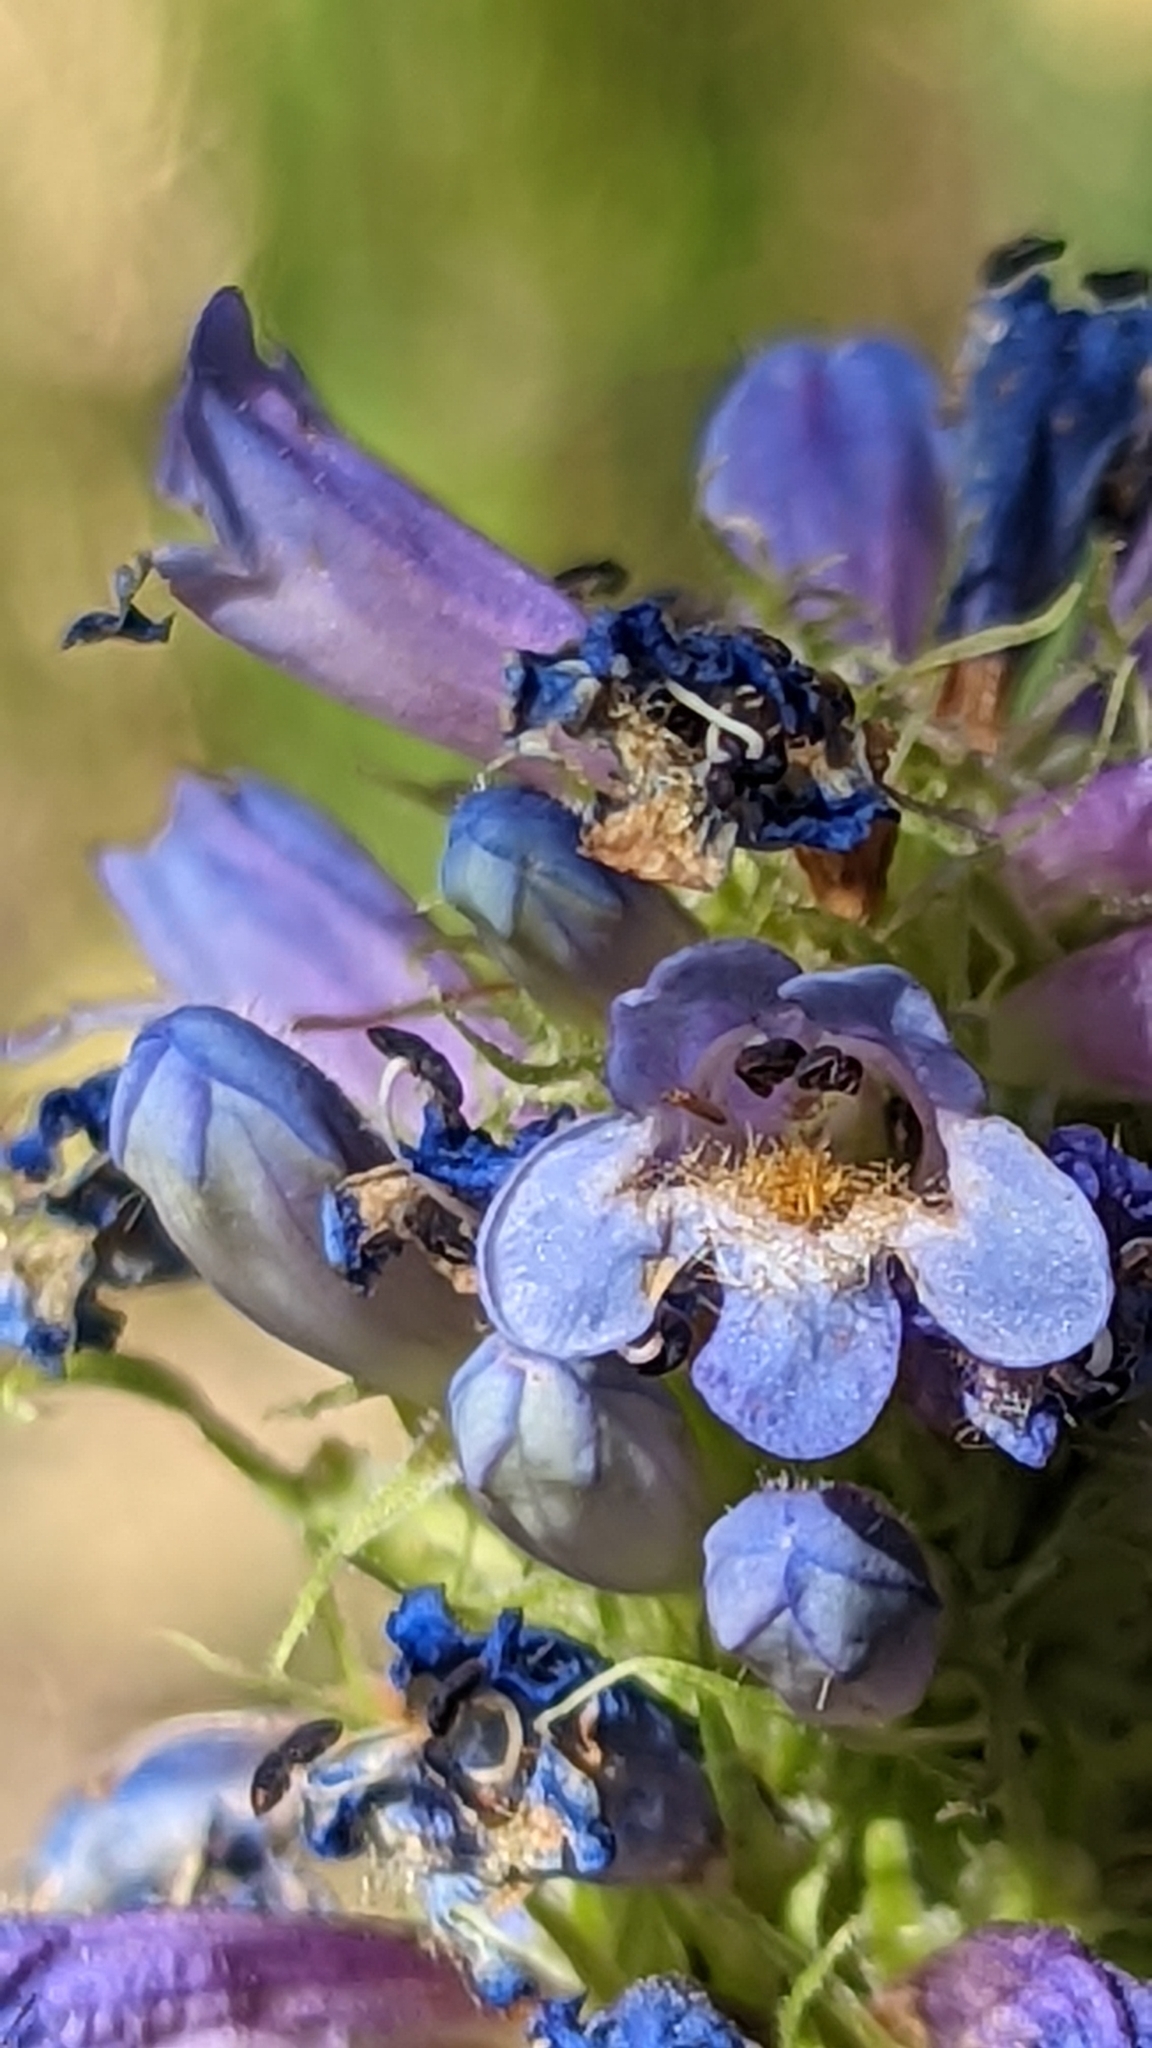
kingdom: Plantae
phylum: Tracheophyta
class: Magnoliopsida
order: Lamiales
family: Plantaginaceae
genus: Penstemon
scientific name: Penstemon rydbergii
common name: Rydberg's beardtongue
